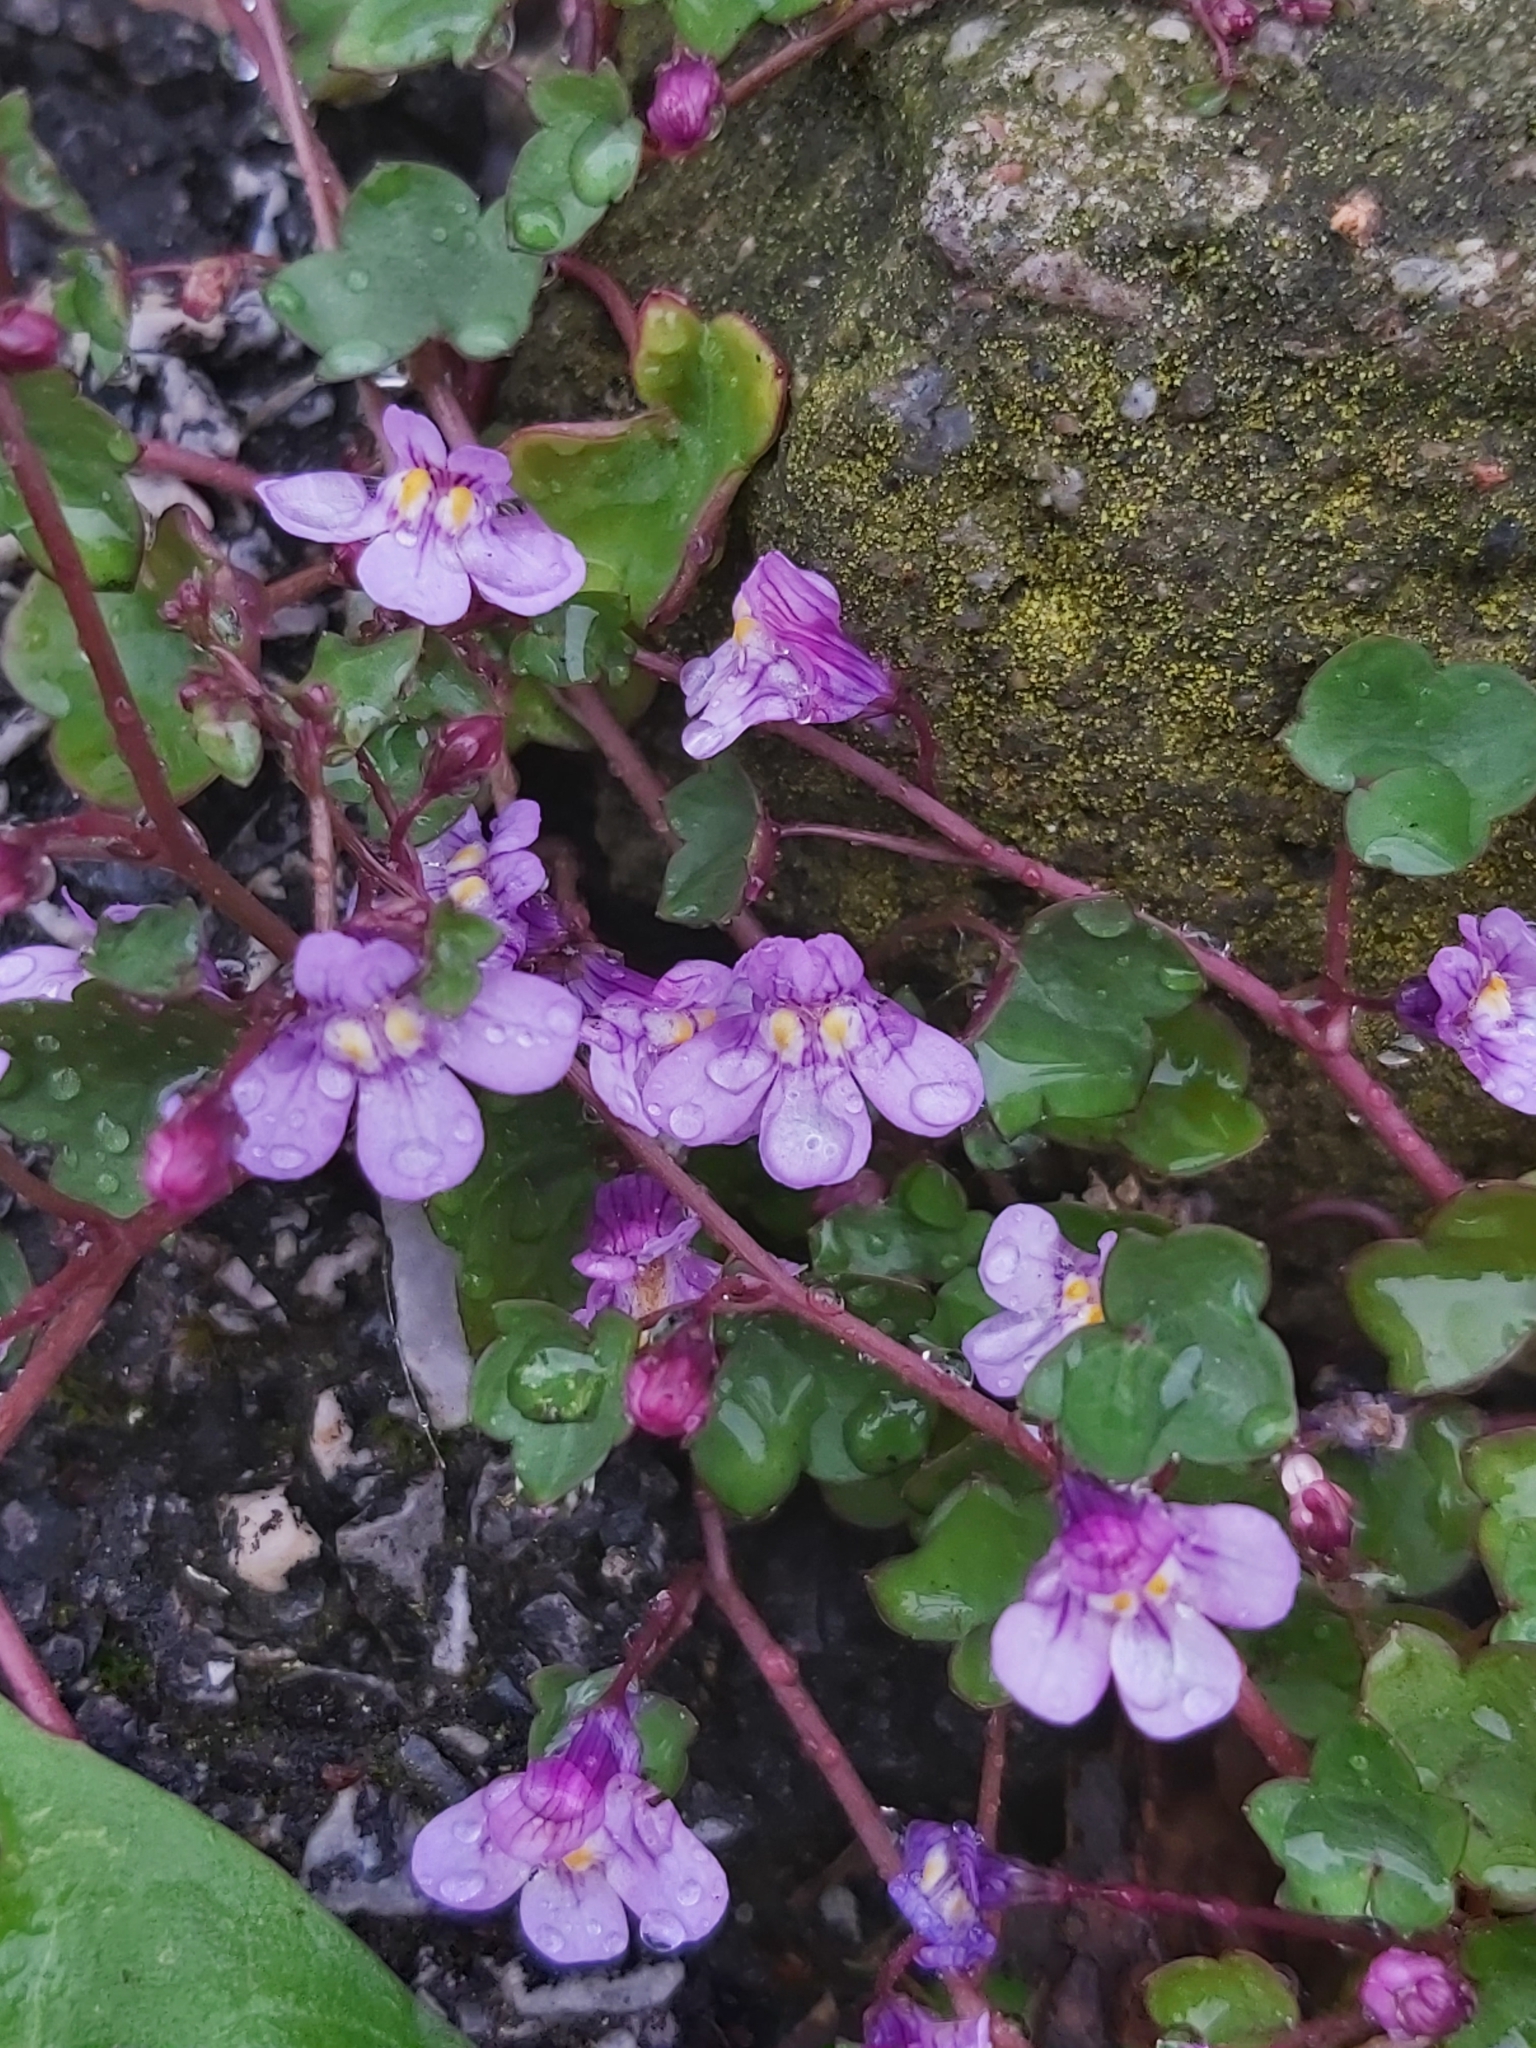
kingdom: Plantae
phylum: Tracheophyta
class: Magnoliopsida
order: Lamiales
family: Plantaginaceae
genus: Cymbalaria
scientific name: Cymbalaria muralis
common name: Ivy-leaved toadflax
